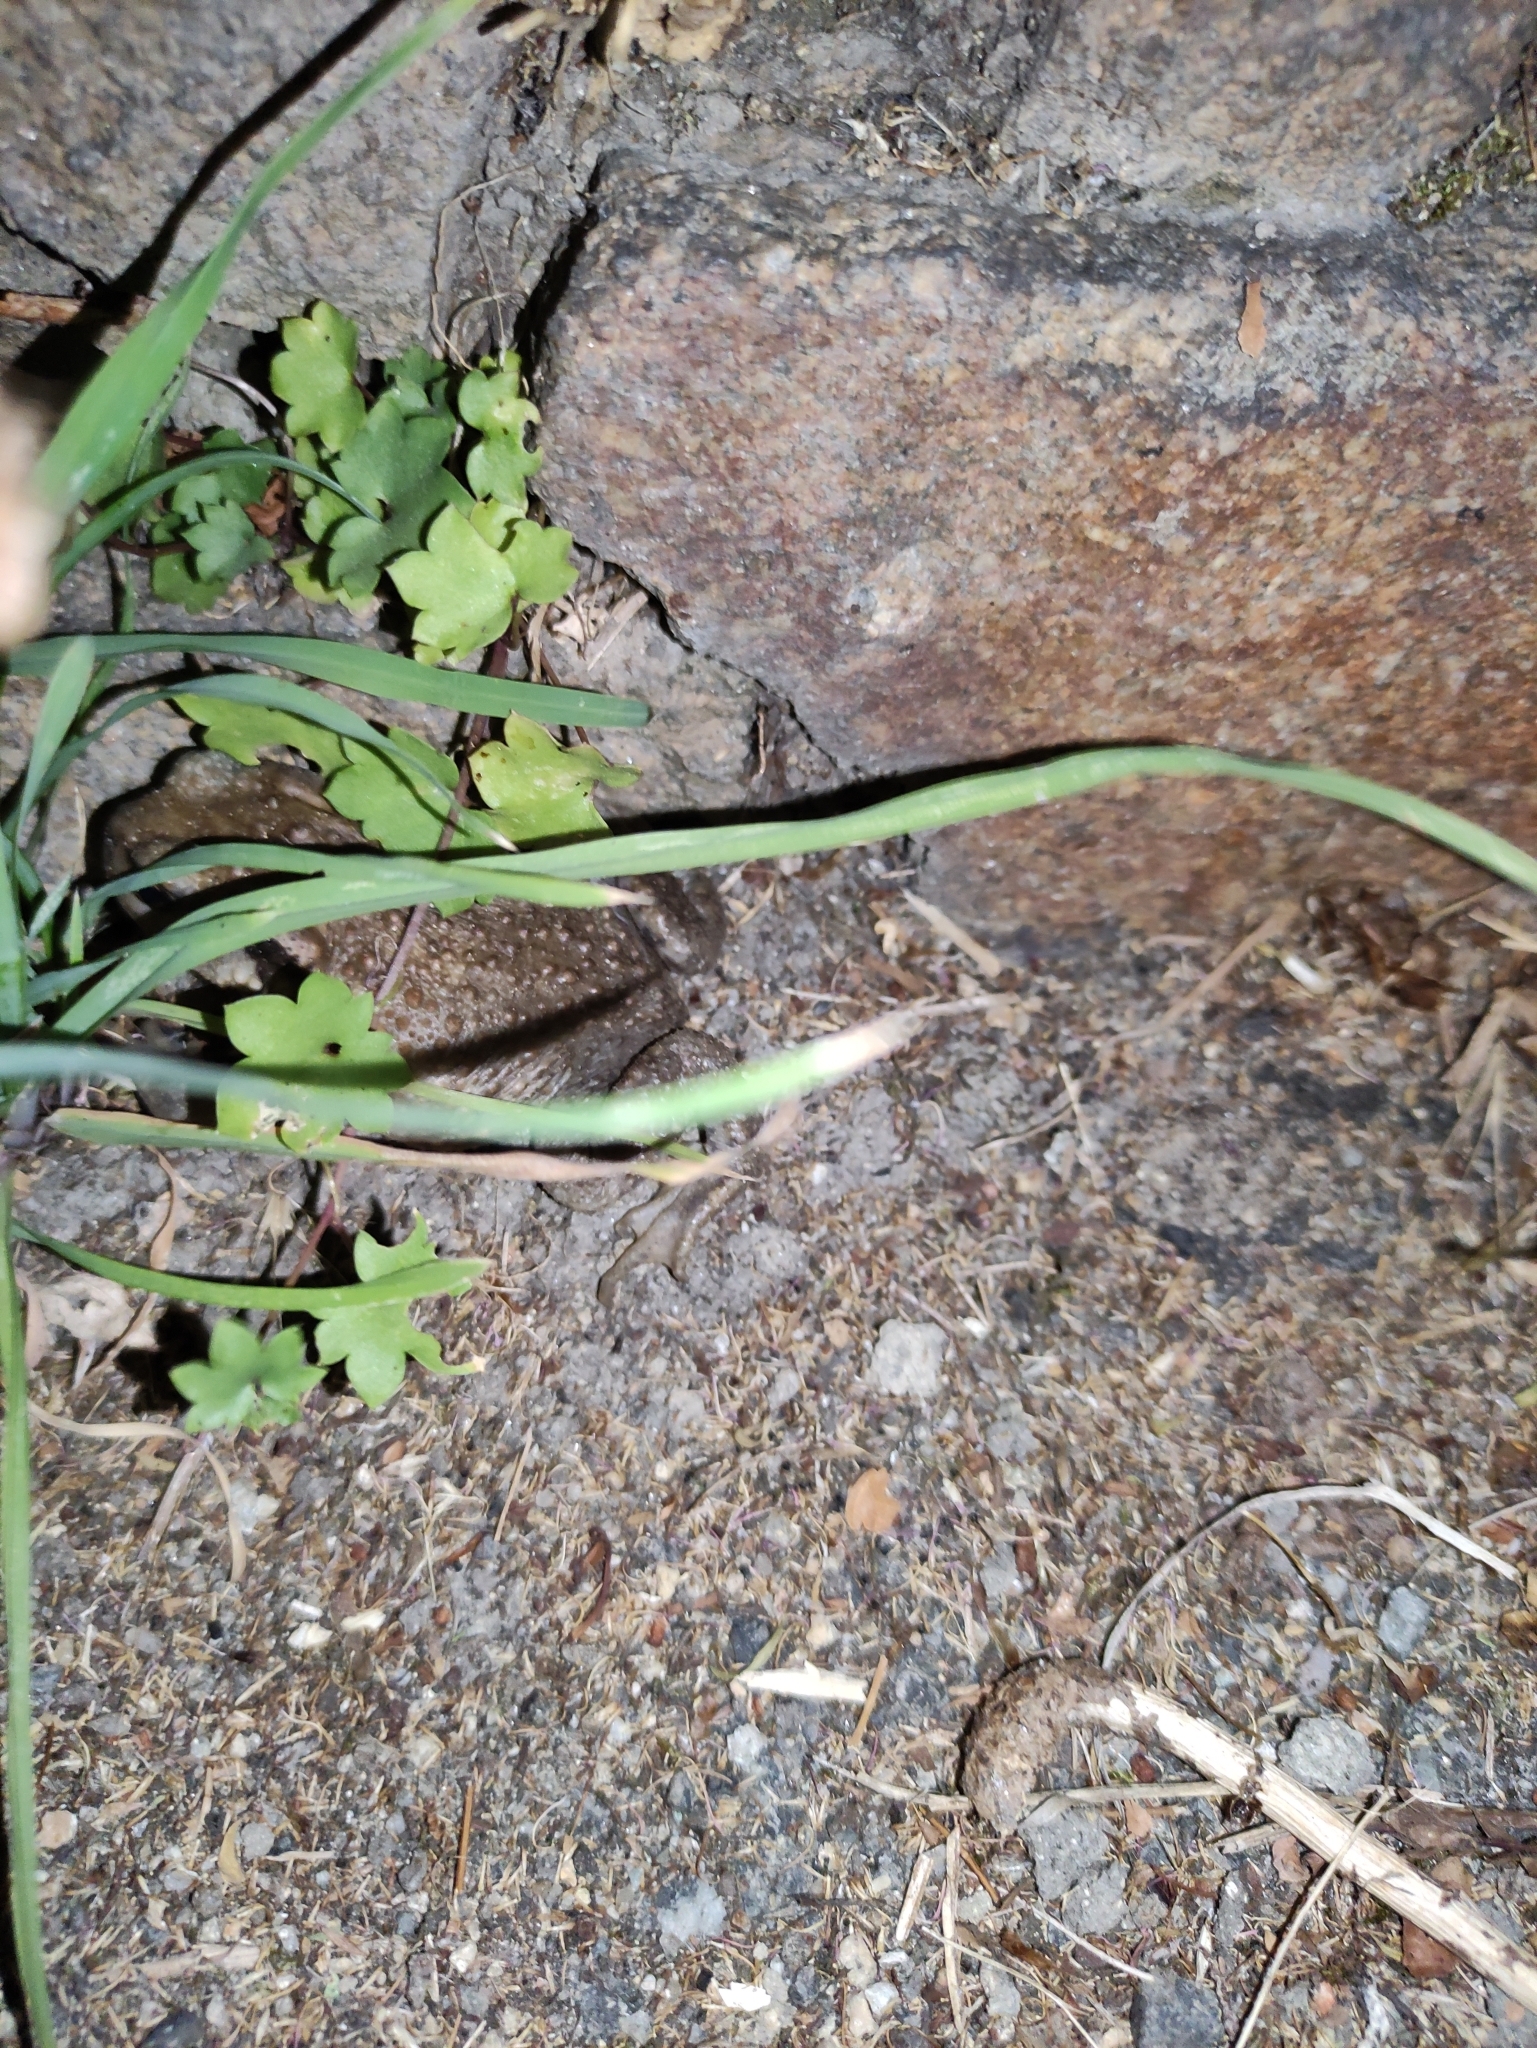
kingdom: Animalia
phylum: Chordata
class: Amphibia
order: Anura
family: Bufonidae
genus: Bufo
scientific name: Bufo spinosus
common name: Western common toad
